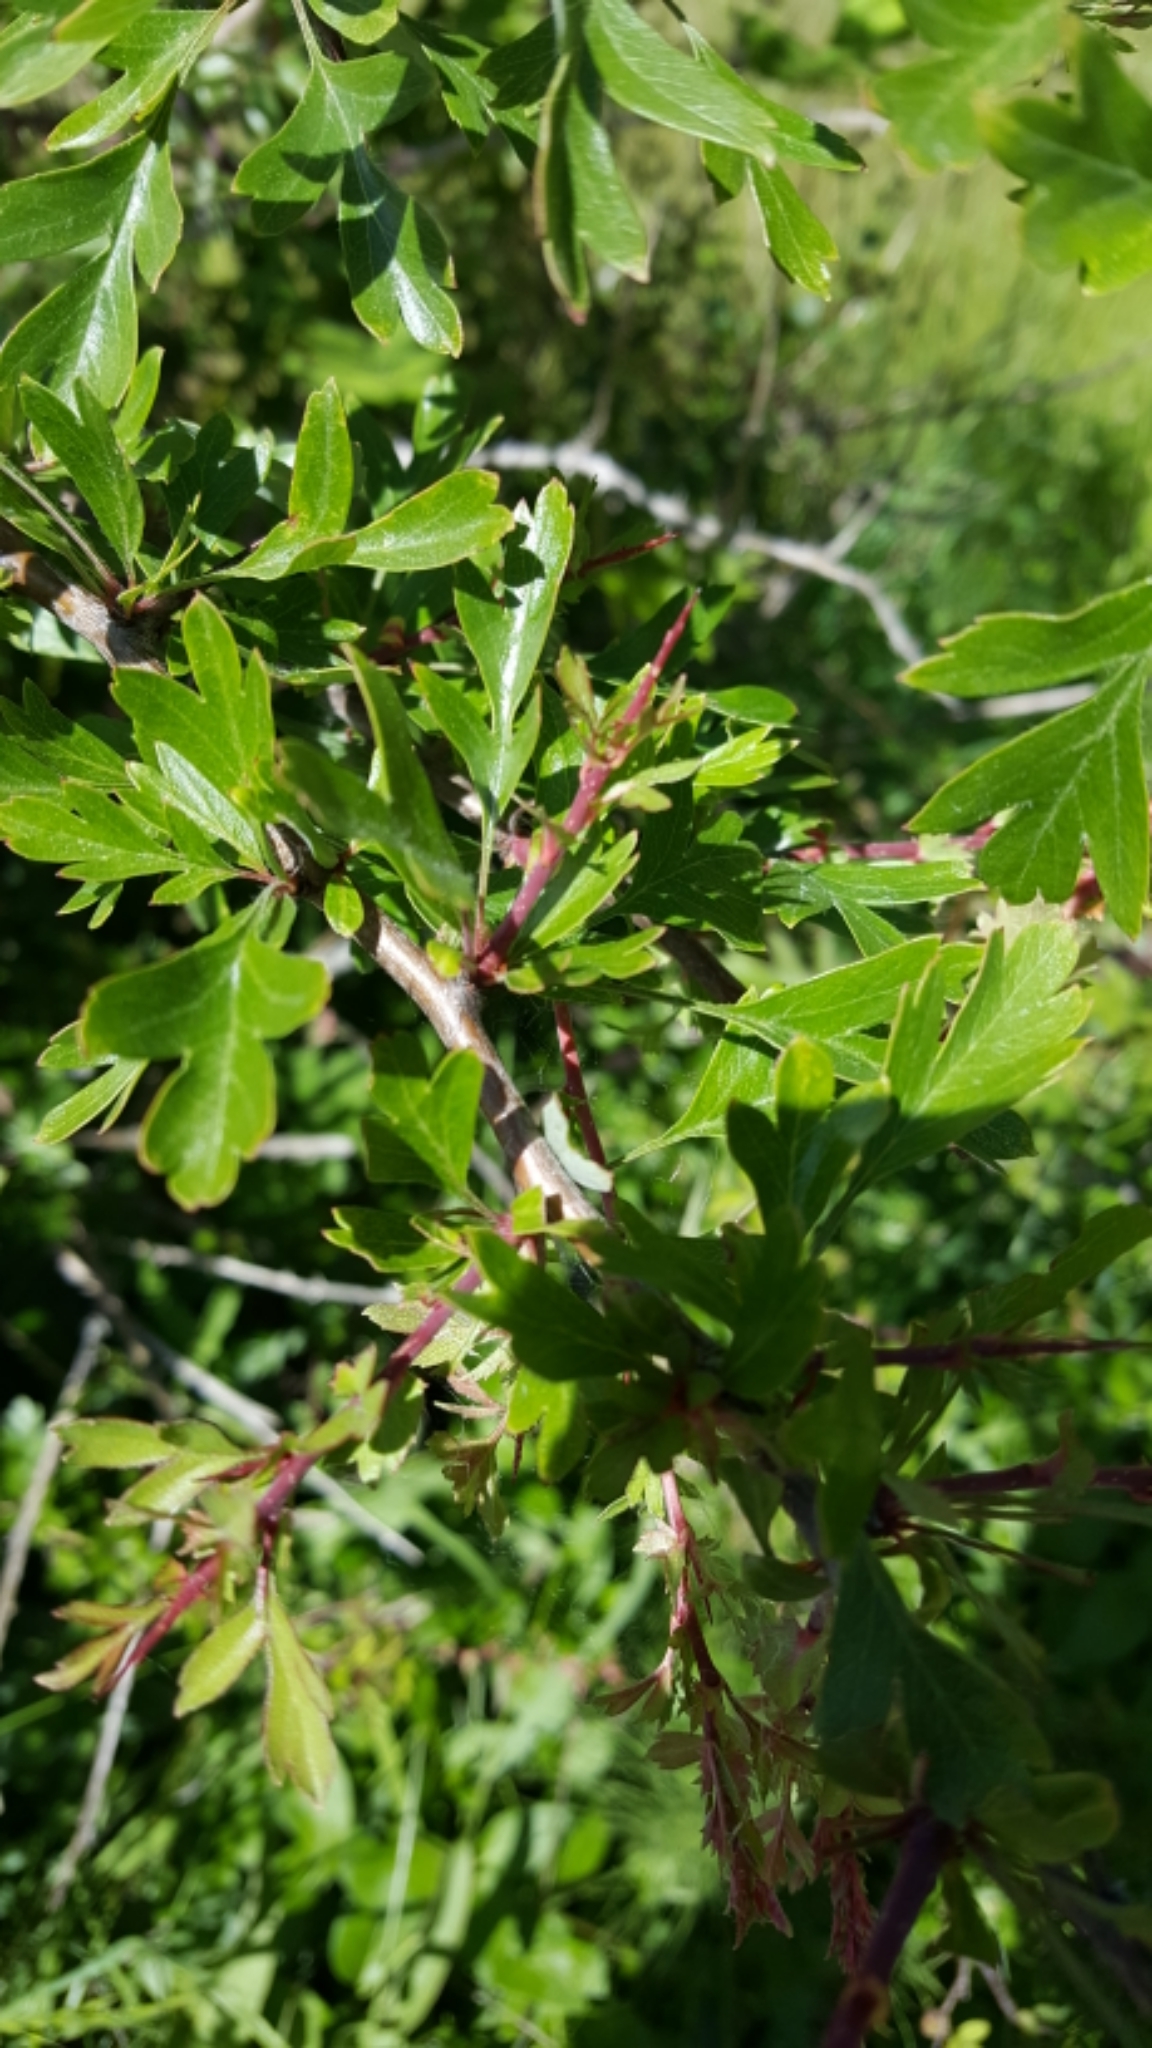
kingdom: Plantae
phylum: Tracheophyta
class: Magnoliopsida
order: Rosales
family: Rosaceae
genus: Crataegus
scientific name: Crataegus monogyna
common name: Hawthorn
